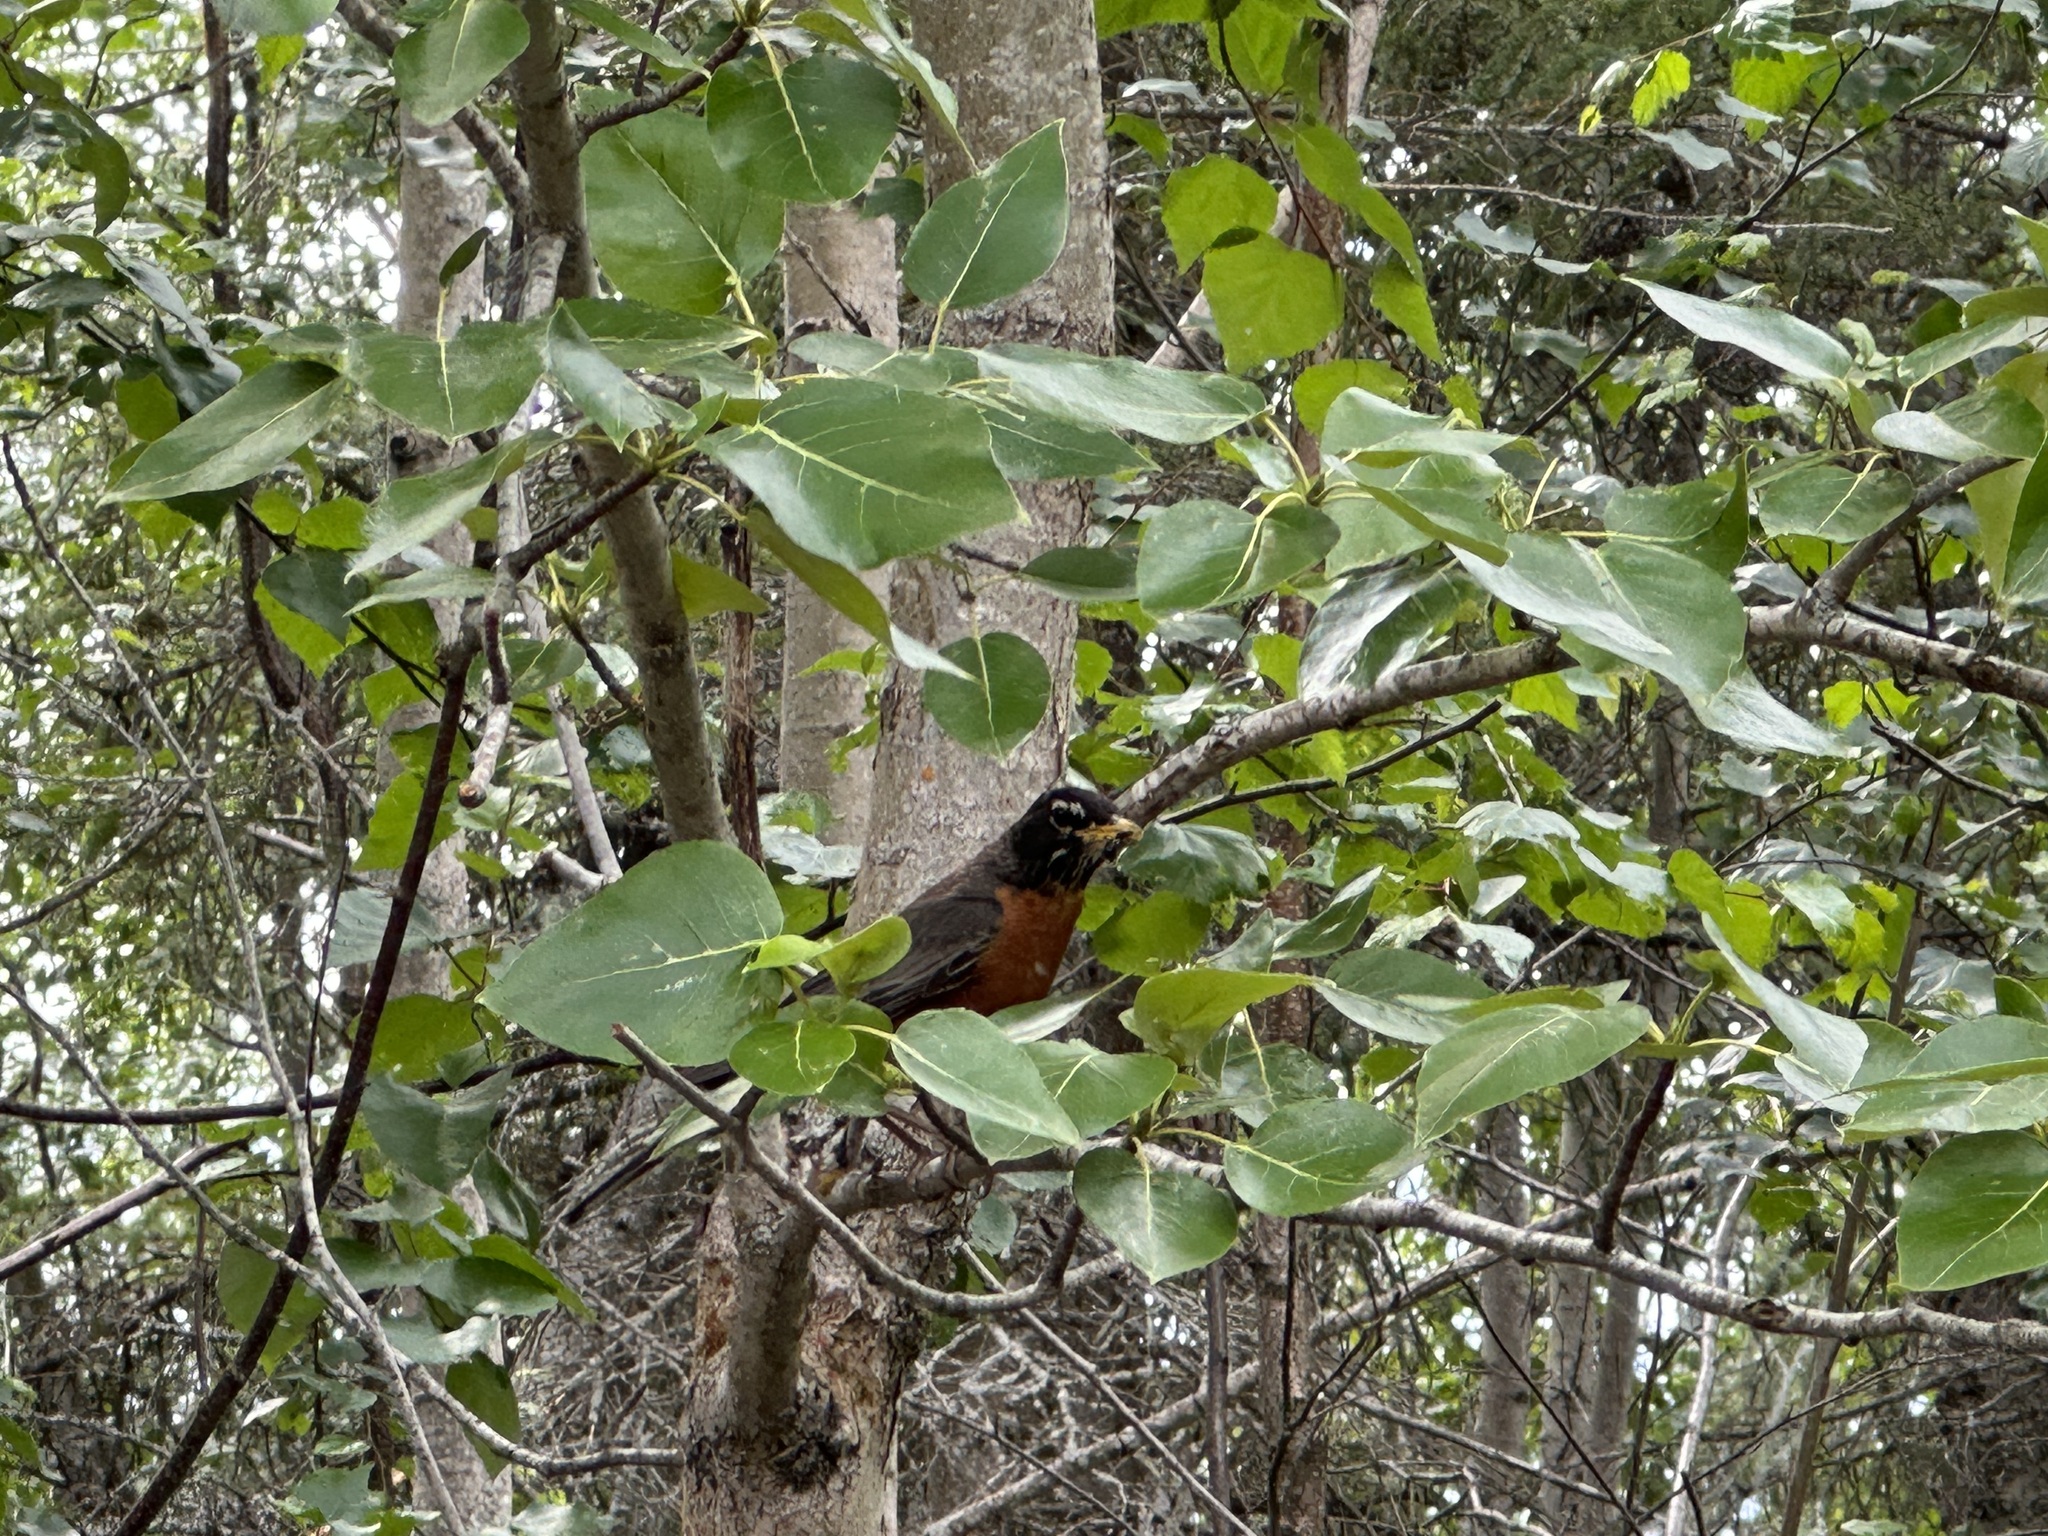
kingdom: Animalia
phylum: Chordata
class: Aves
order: Passeriformes
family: Turdidae
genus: Turdus
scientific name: Turdus migratorius
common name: American robin
